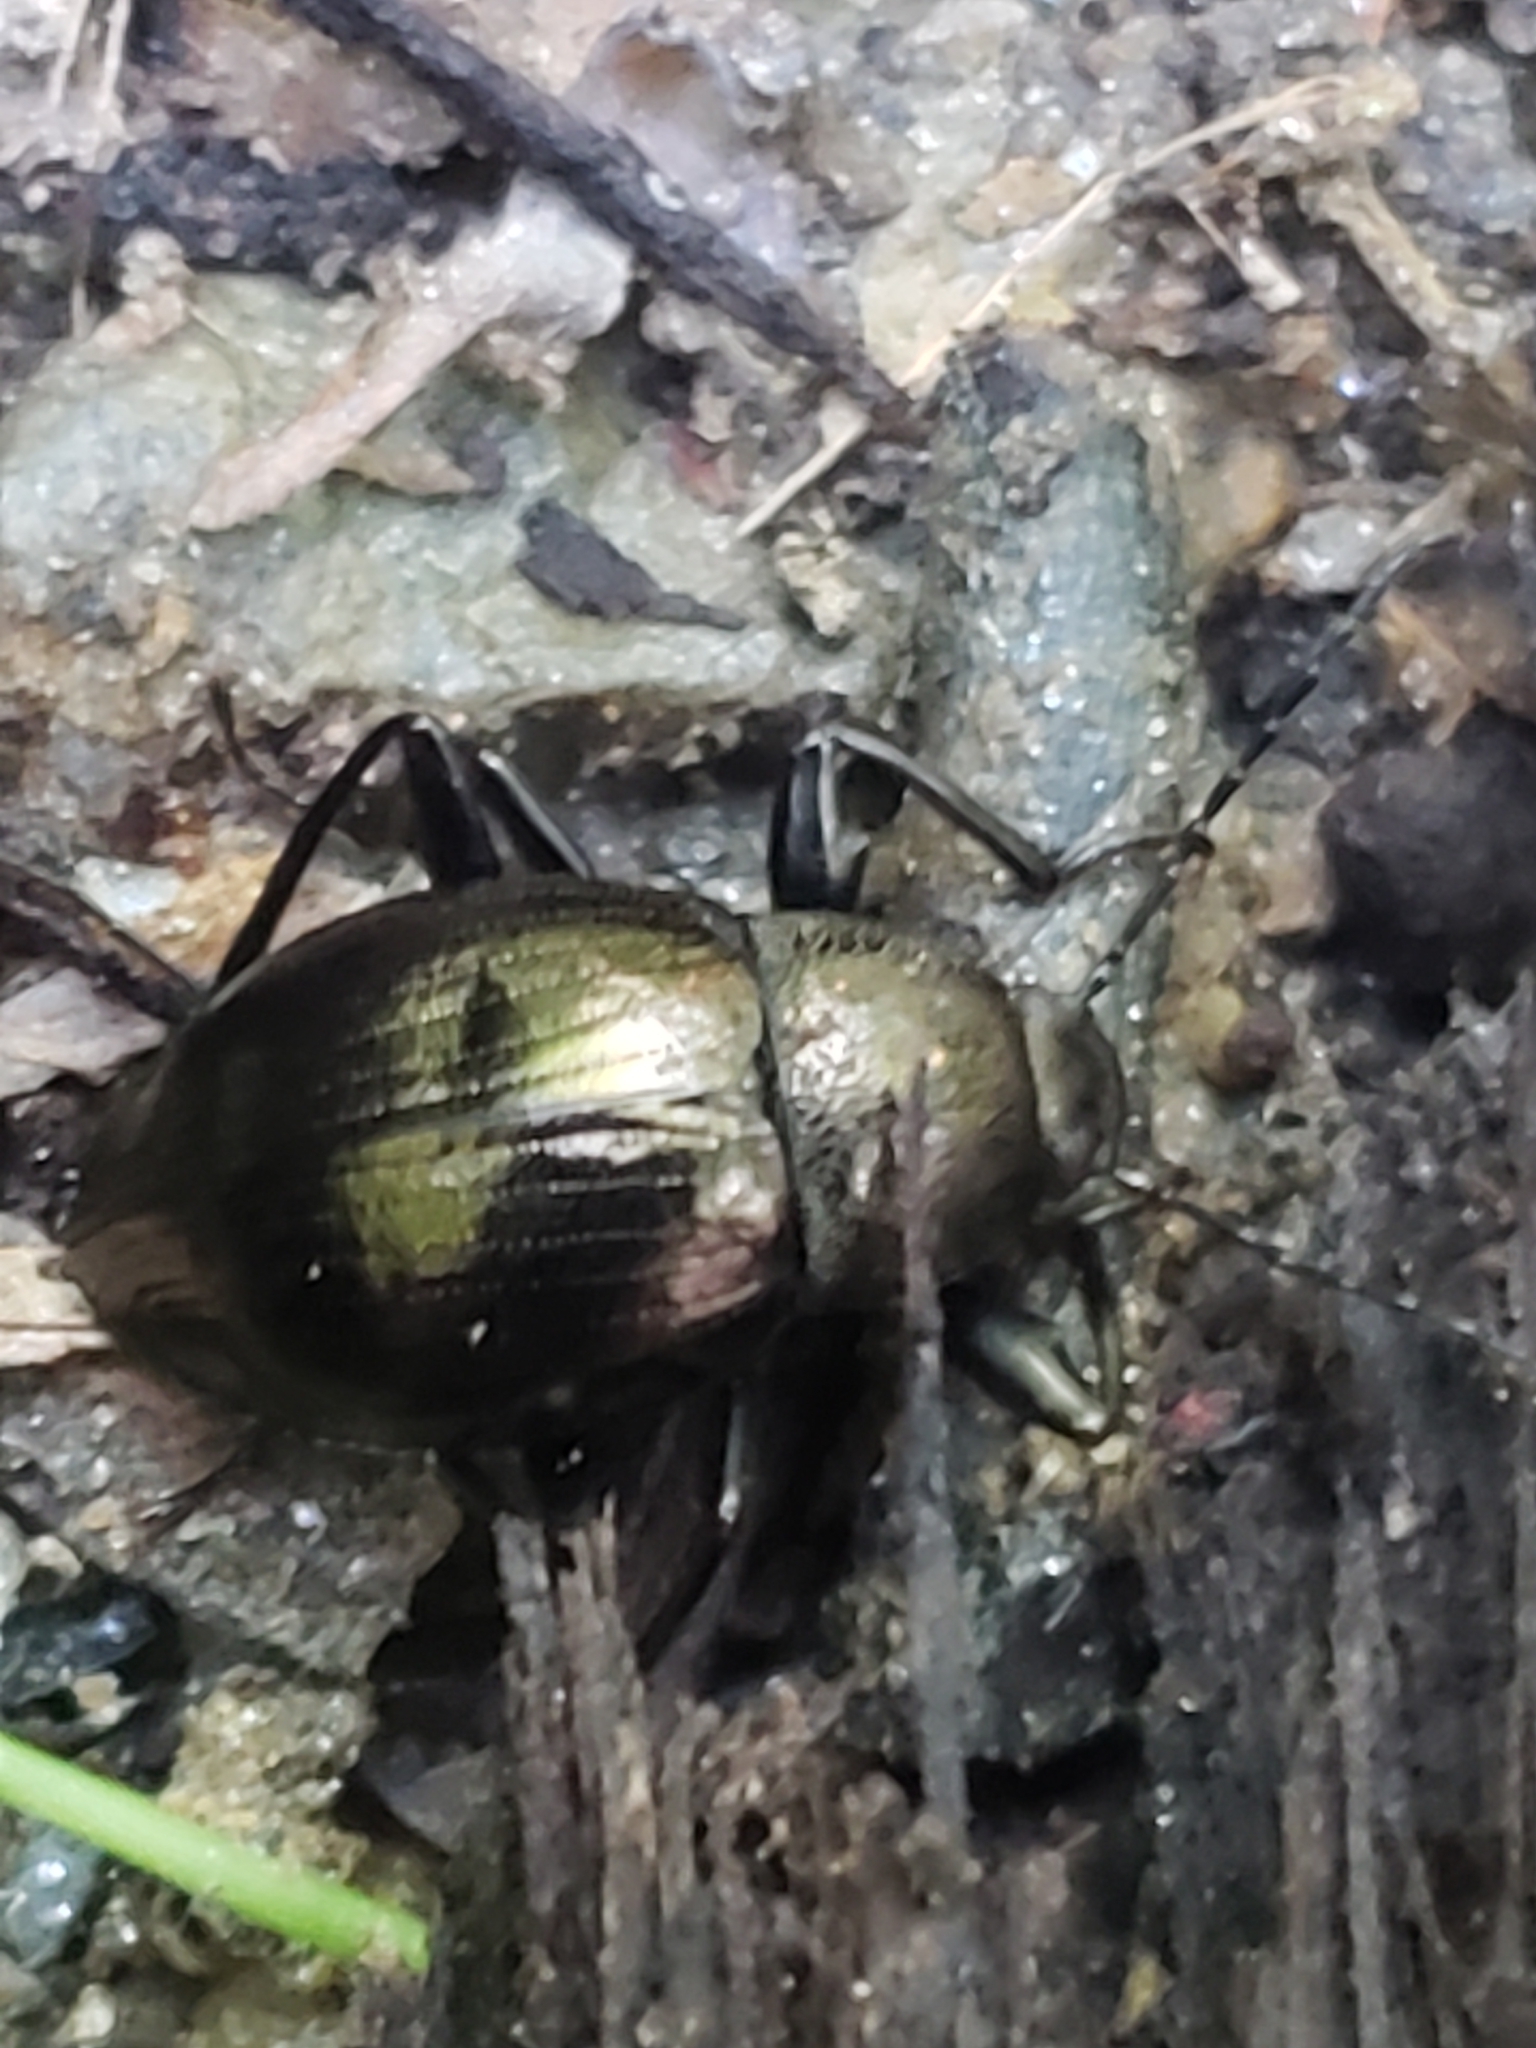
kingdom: Animalia
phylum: Arthropoda
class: Insecta
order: Coleoptera
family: Tenebrionidae
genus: Meracantha
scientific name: Meracantha contracta
